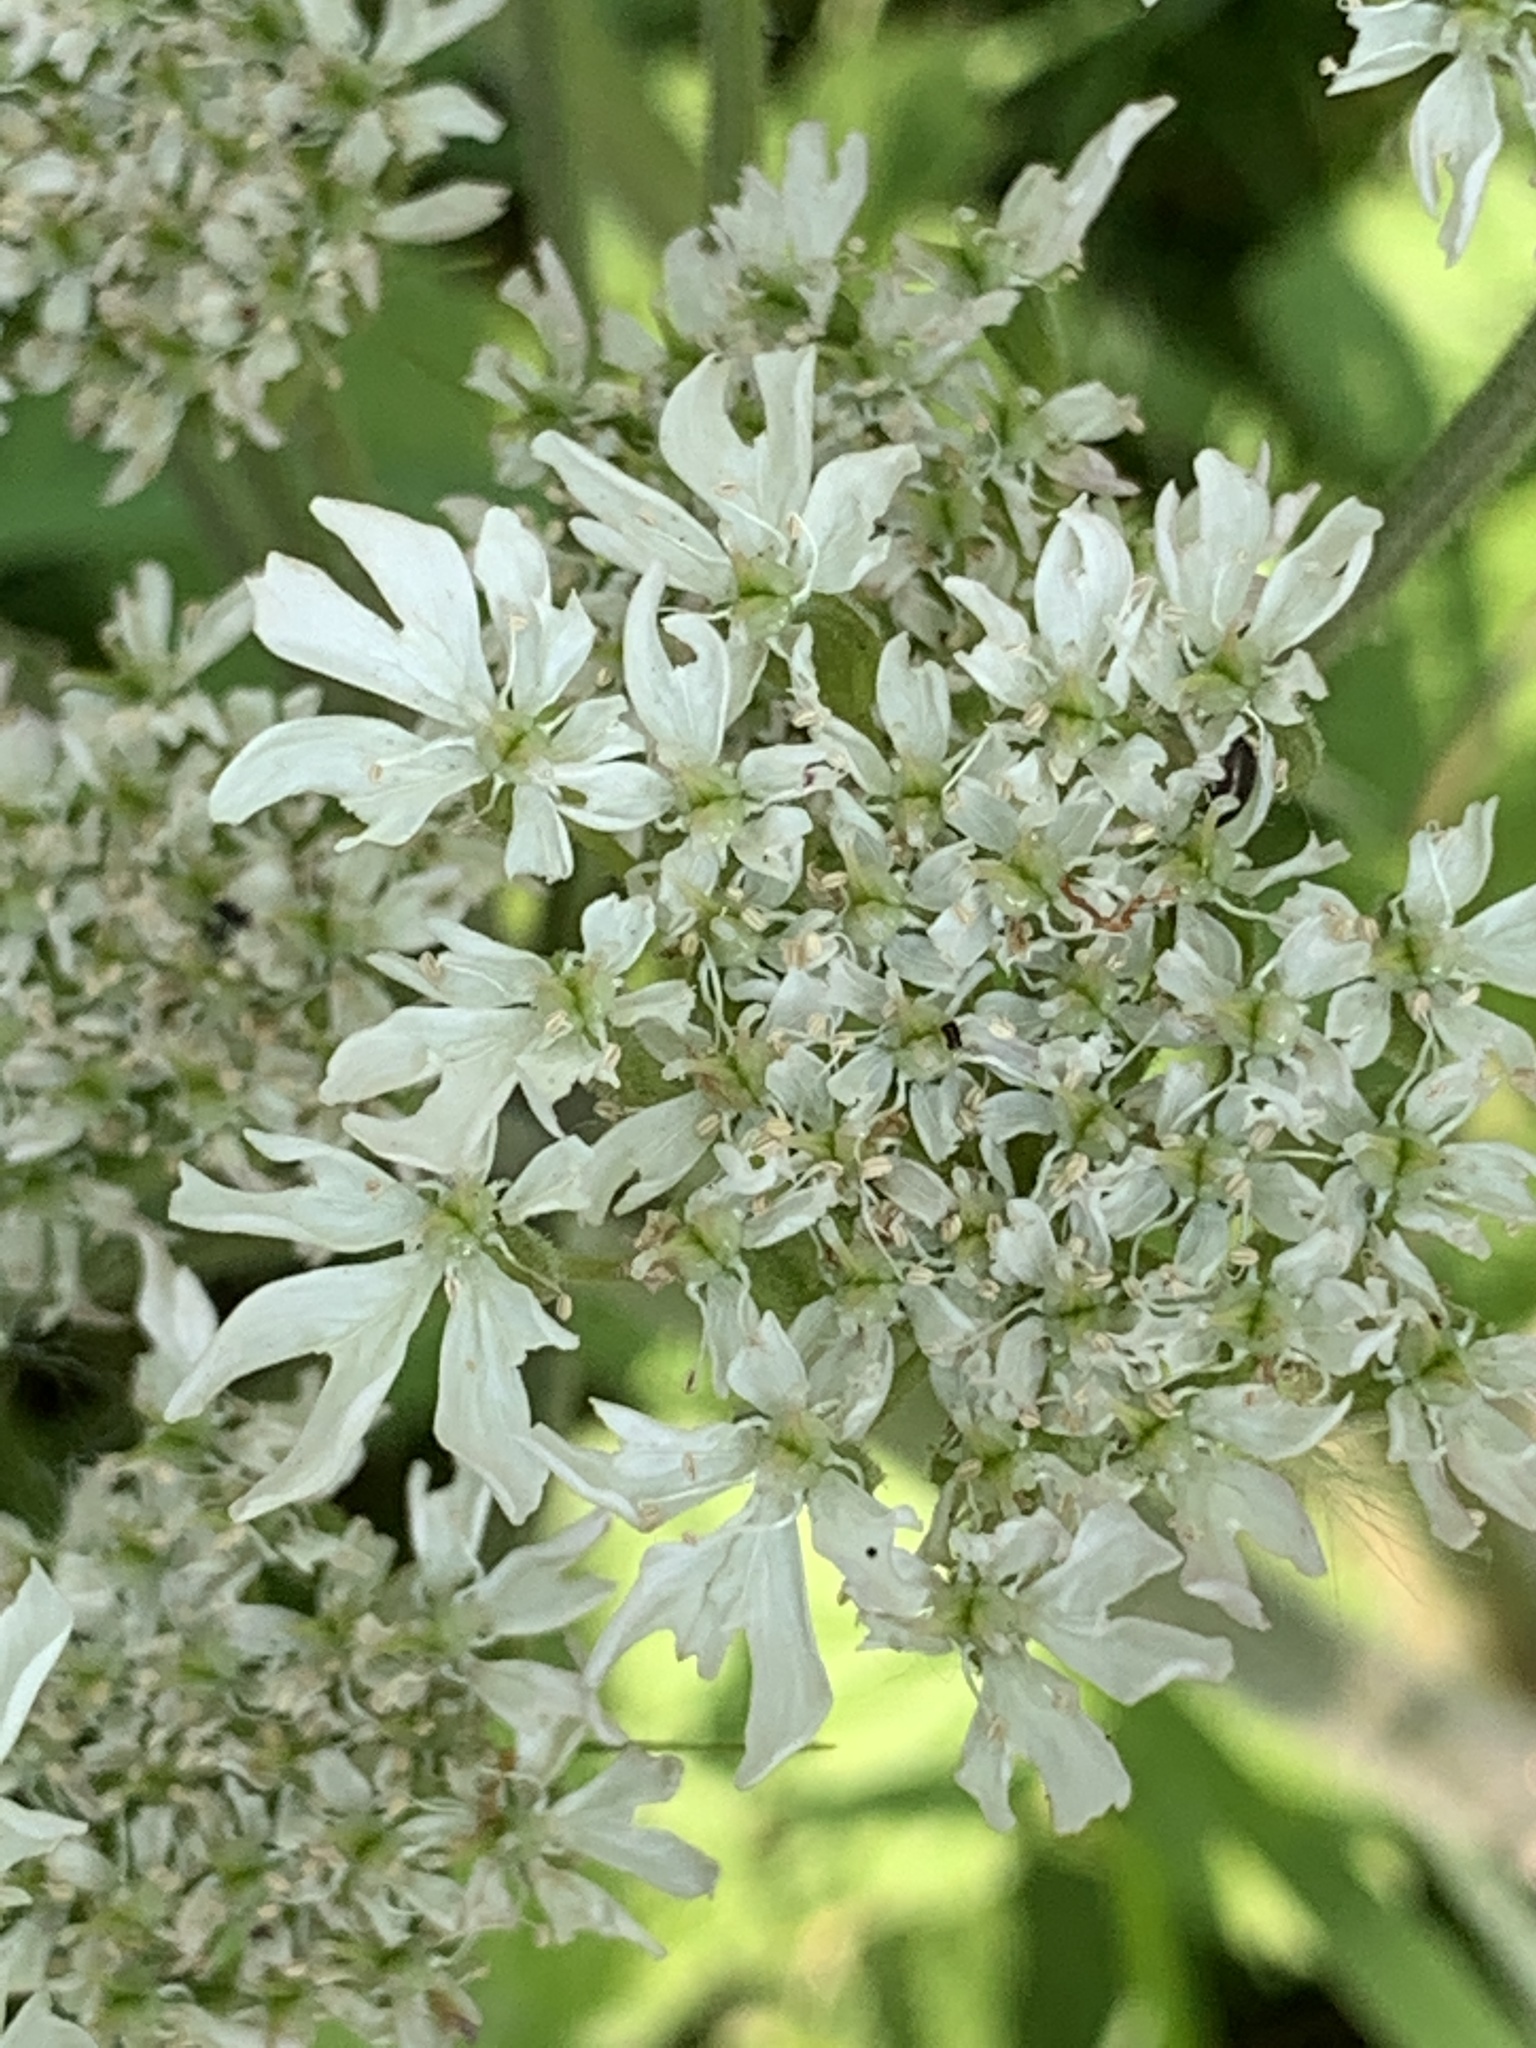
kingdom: Plantae
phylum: Tracheophyta
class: Magnoliopsida
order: Apiales
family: Apiaceae
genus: Heracleum
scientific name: Heracleum sphondylium
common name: Hogweed
